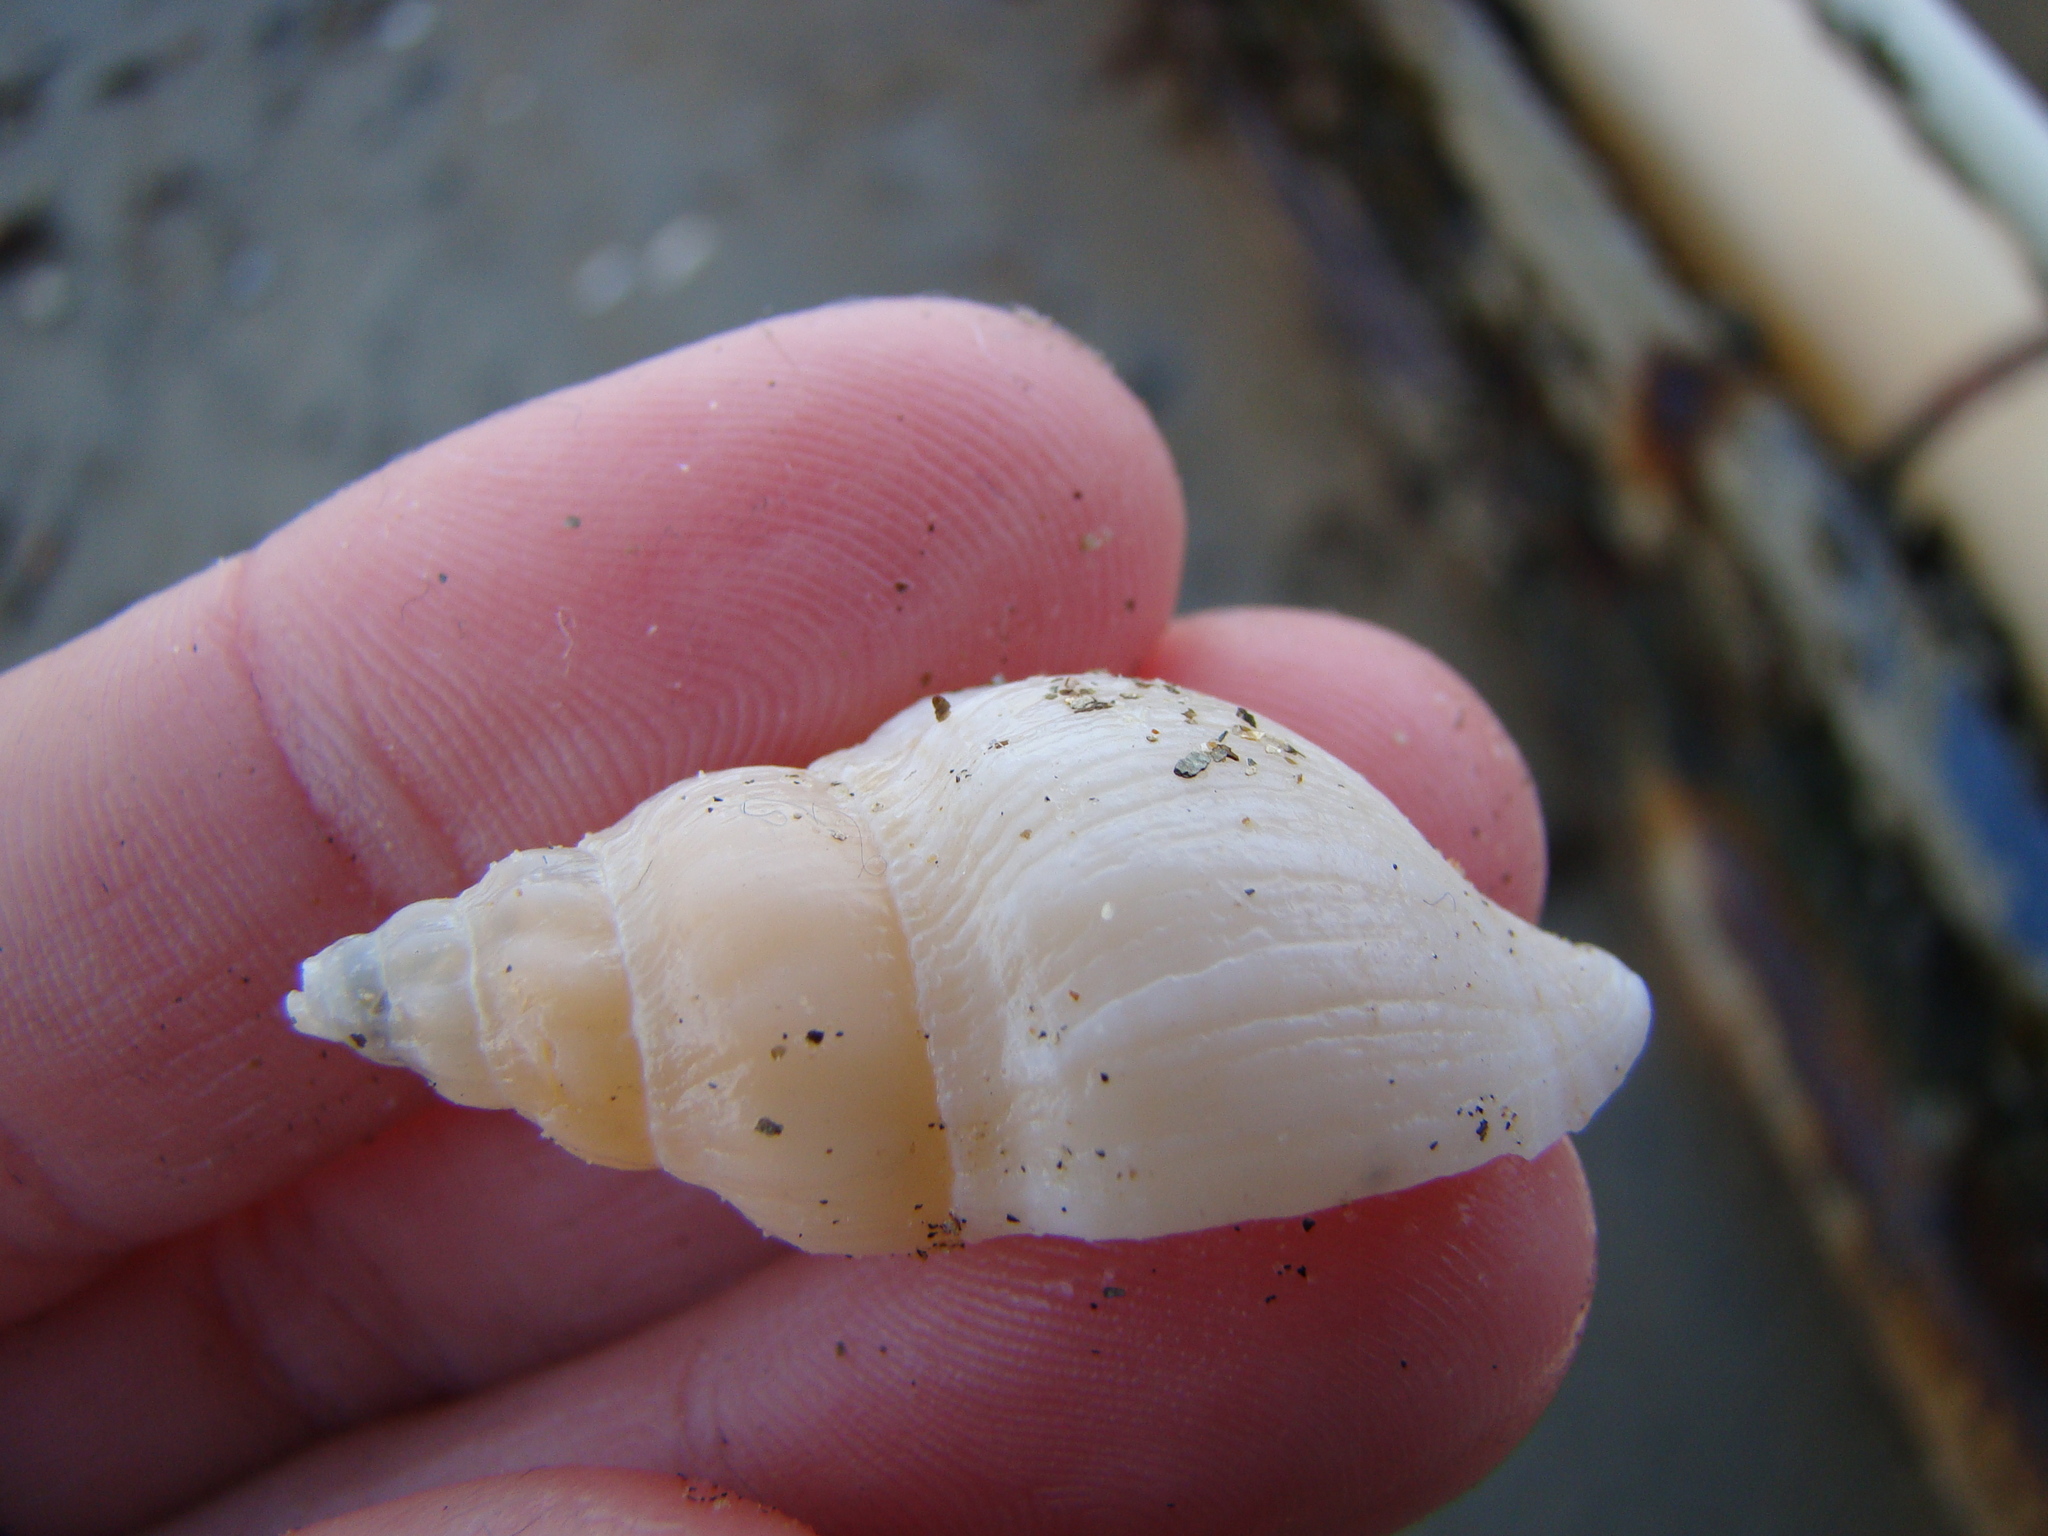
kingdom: Animalia
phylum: Mollusca
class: Gastropoda
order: Neogastropoda
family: Tudiclidae
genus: Buccinulum
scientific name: Buccinulum pertinax
